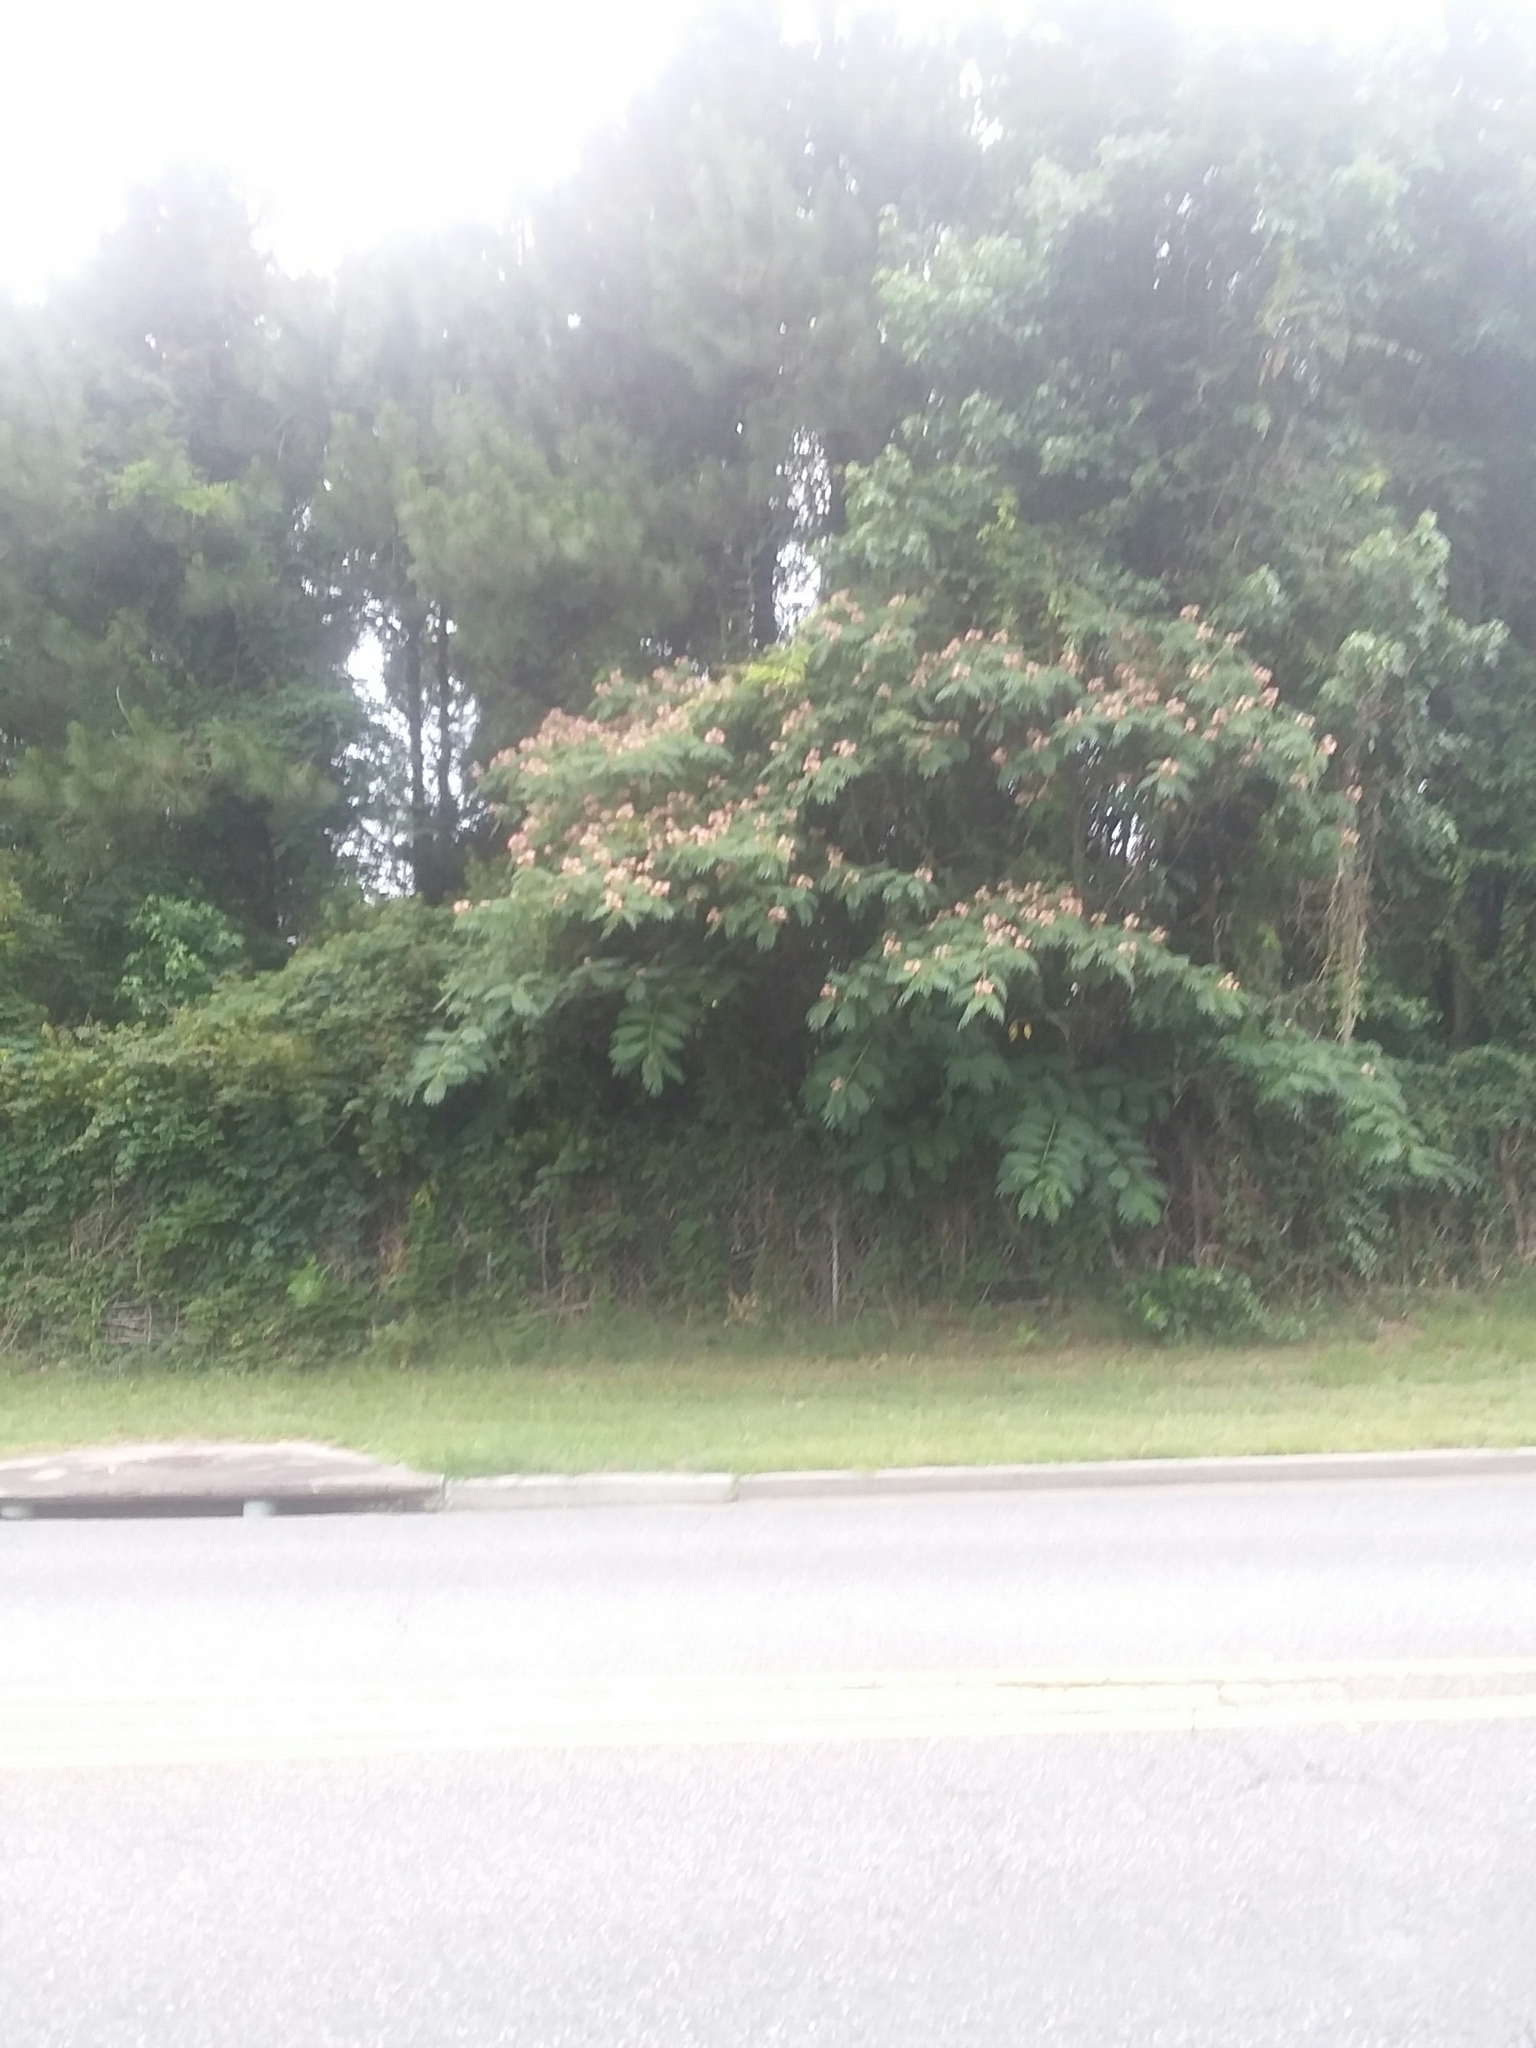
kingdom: Plantae
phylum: Tracheophyta
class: Magnoliopsida
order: Fabales
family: Fabaceae
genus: Albizia
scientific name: Albizia julibrissin
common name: Silktree
